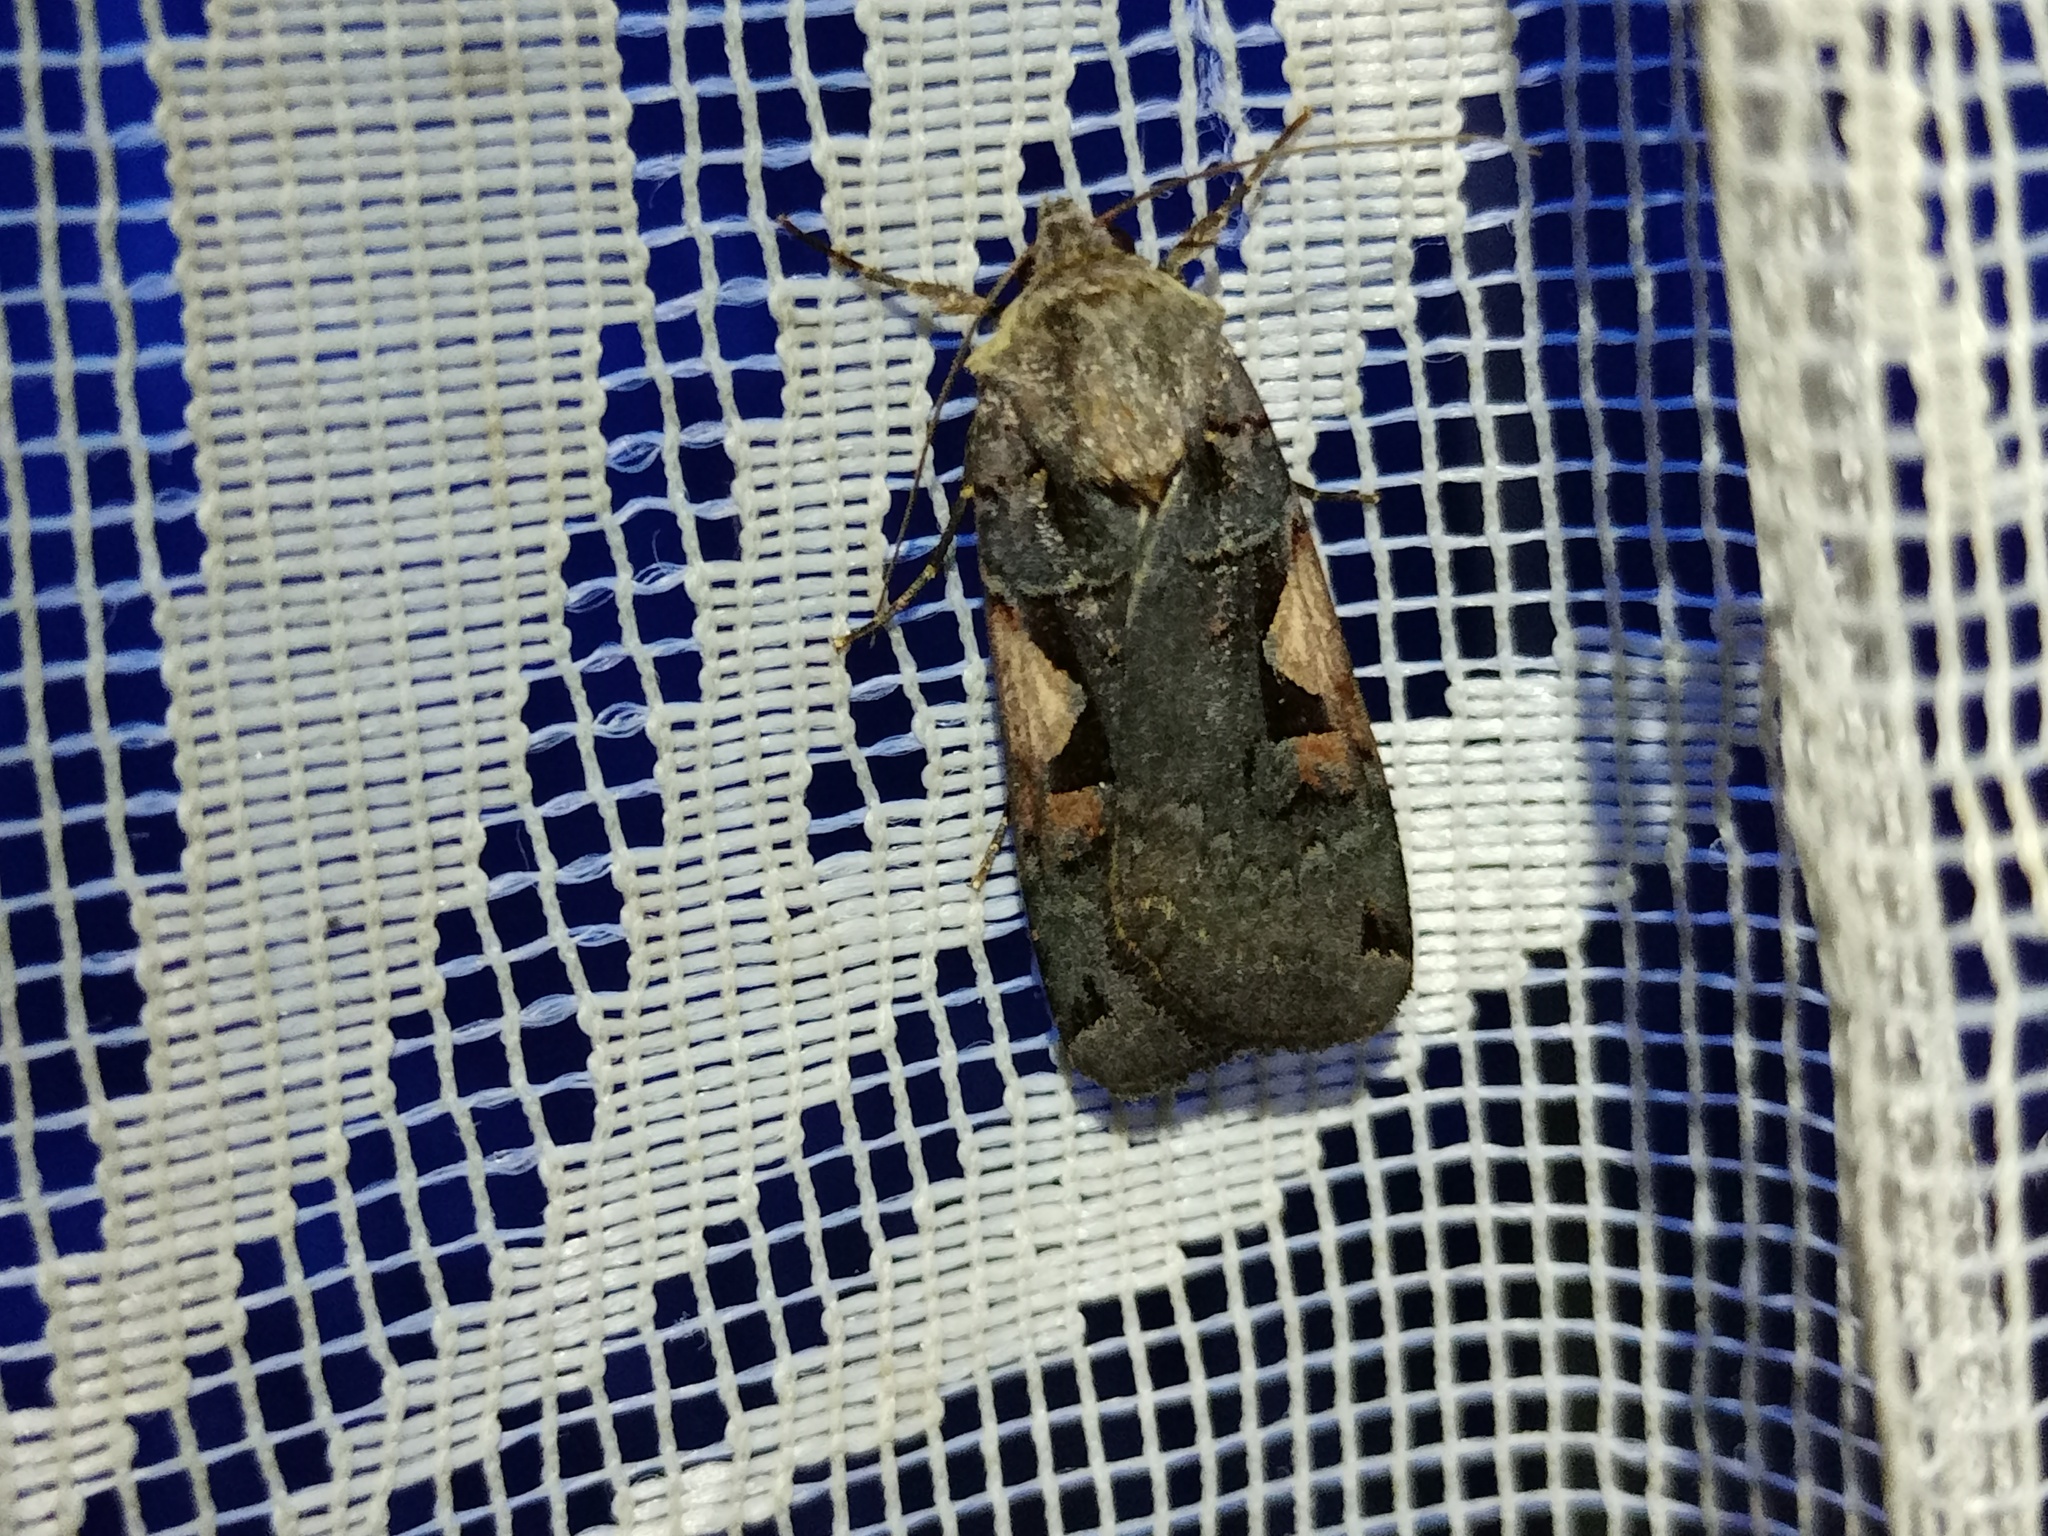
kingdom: Animalia
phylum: Arthropoda
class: Insecta
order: Lepidoptera
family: Noctuidae
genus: Xestia
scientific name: Xestia c-nigrum
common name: Setaceous hebrew character
